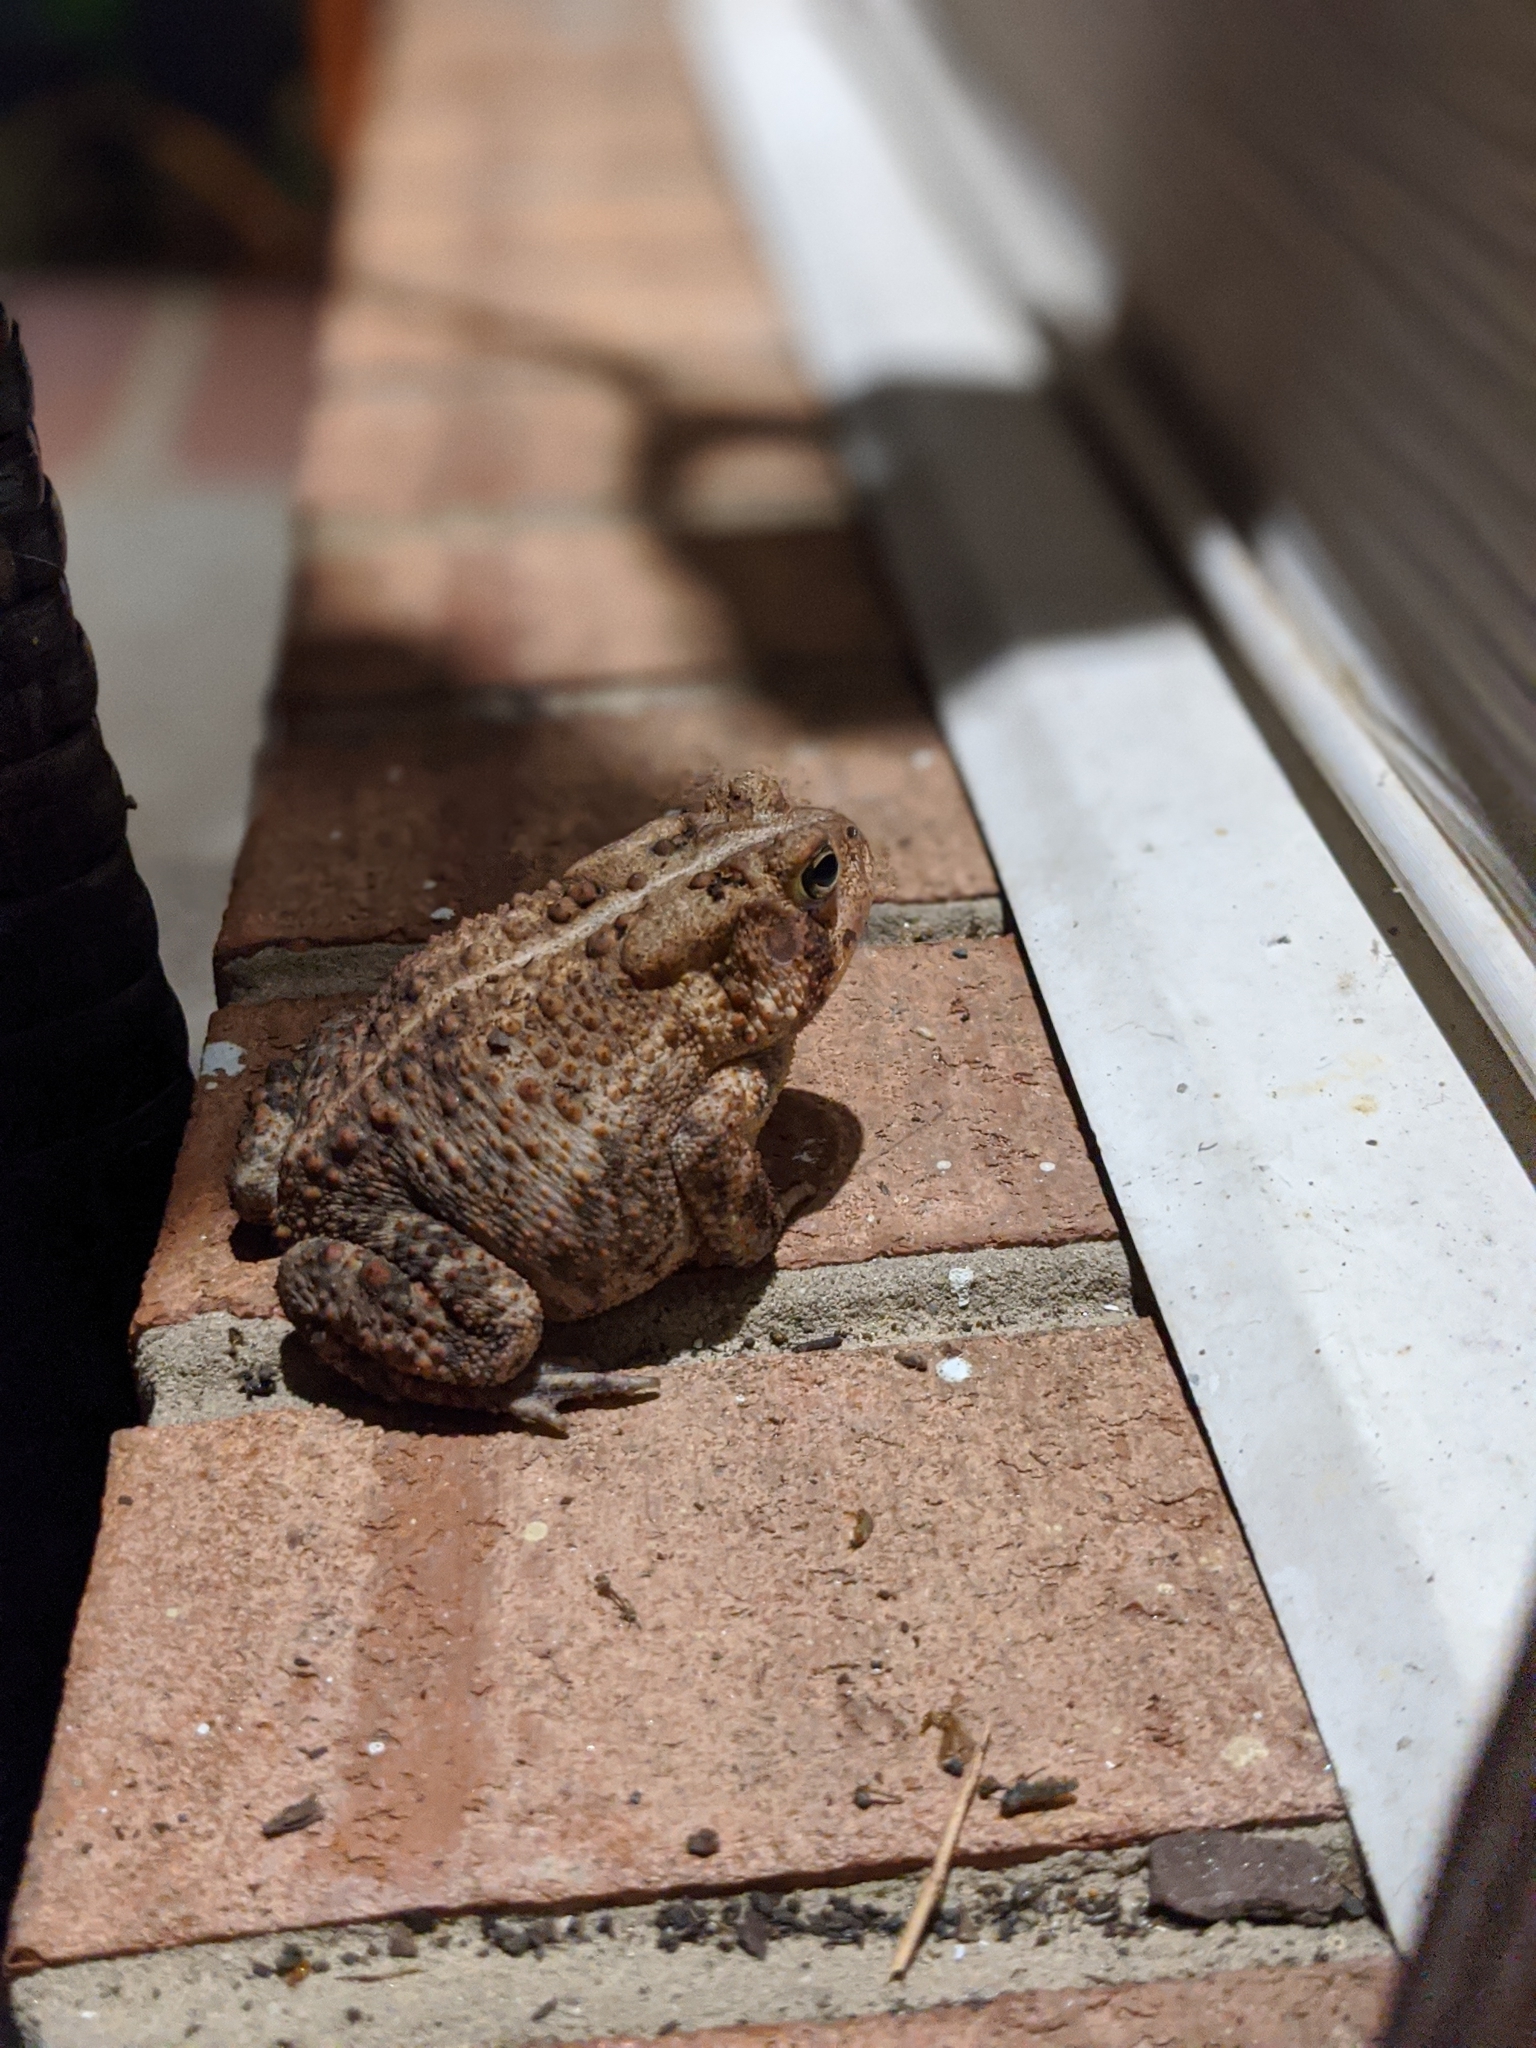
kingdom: Animalia
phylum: Chordata
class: Amphibia
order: Anura
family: Bufonidae
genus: Anaxyrus
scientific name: Anaxyrus americanus
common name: American toad
